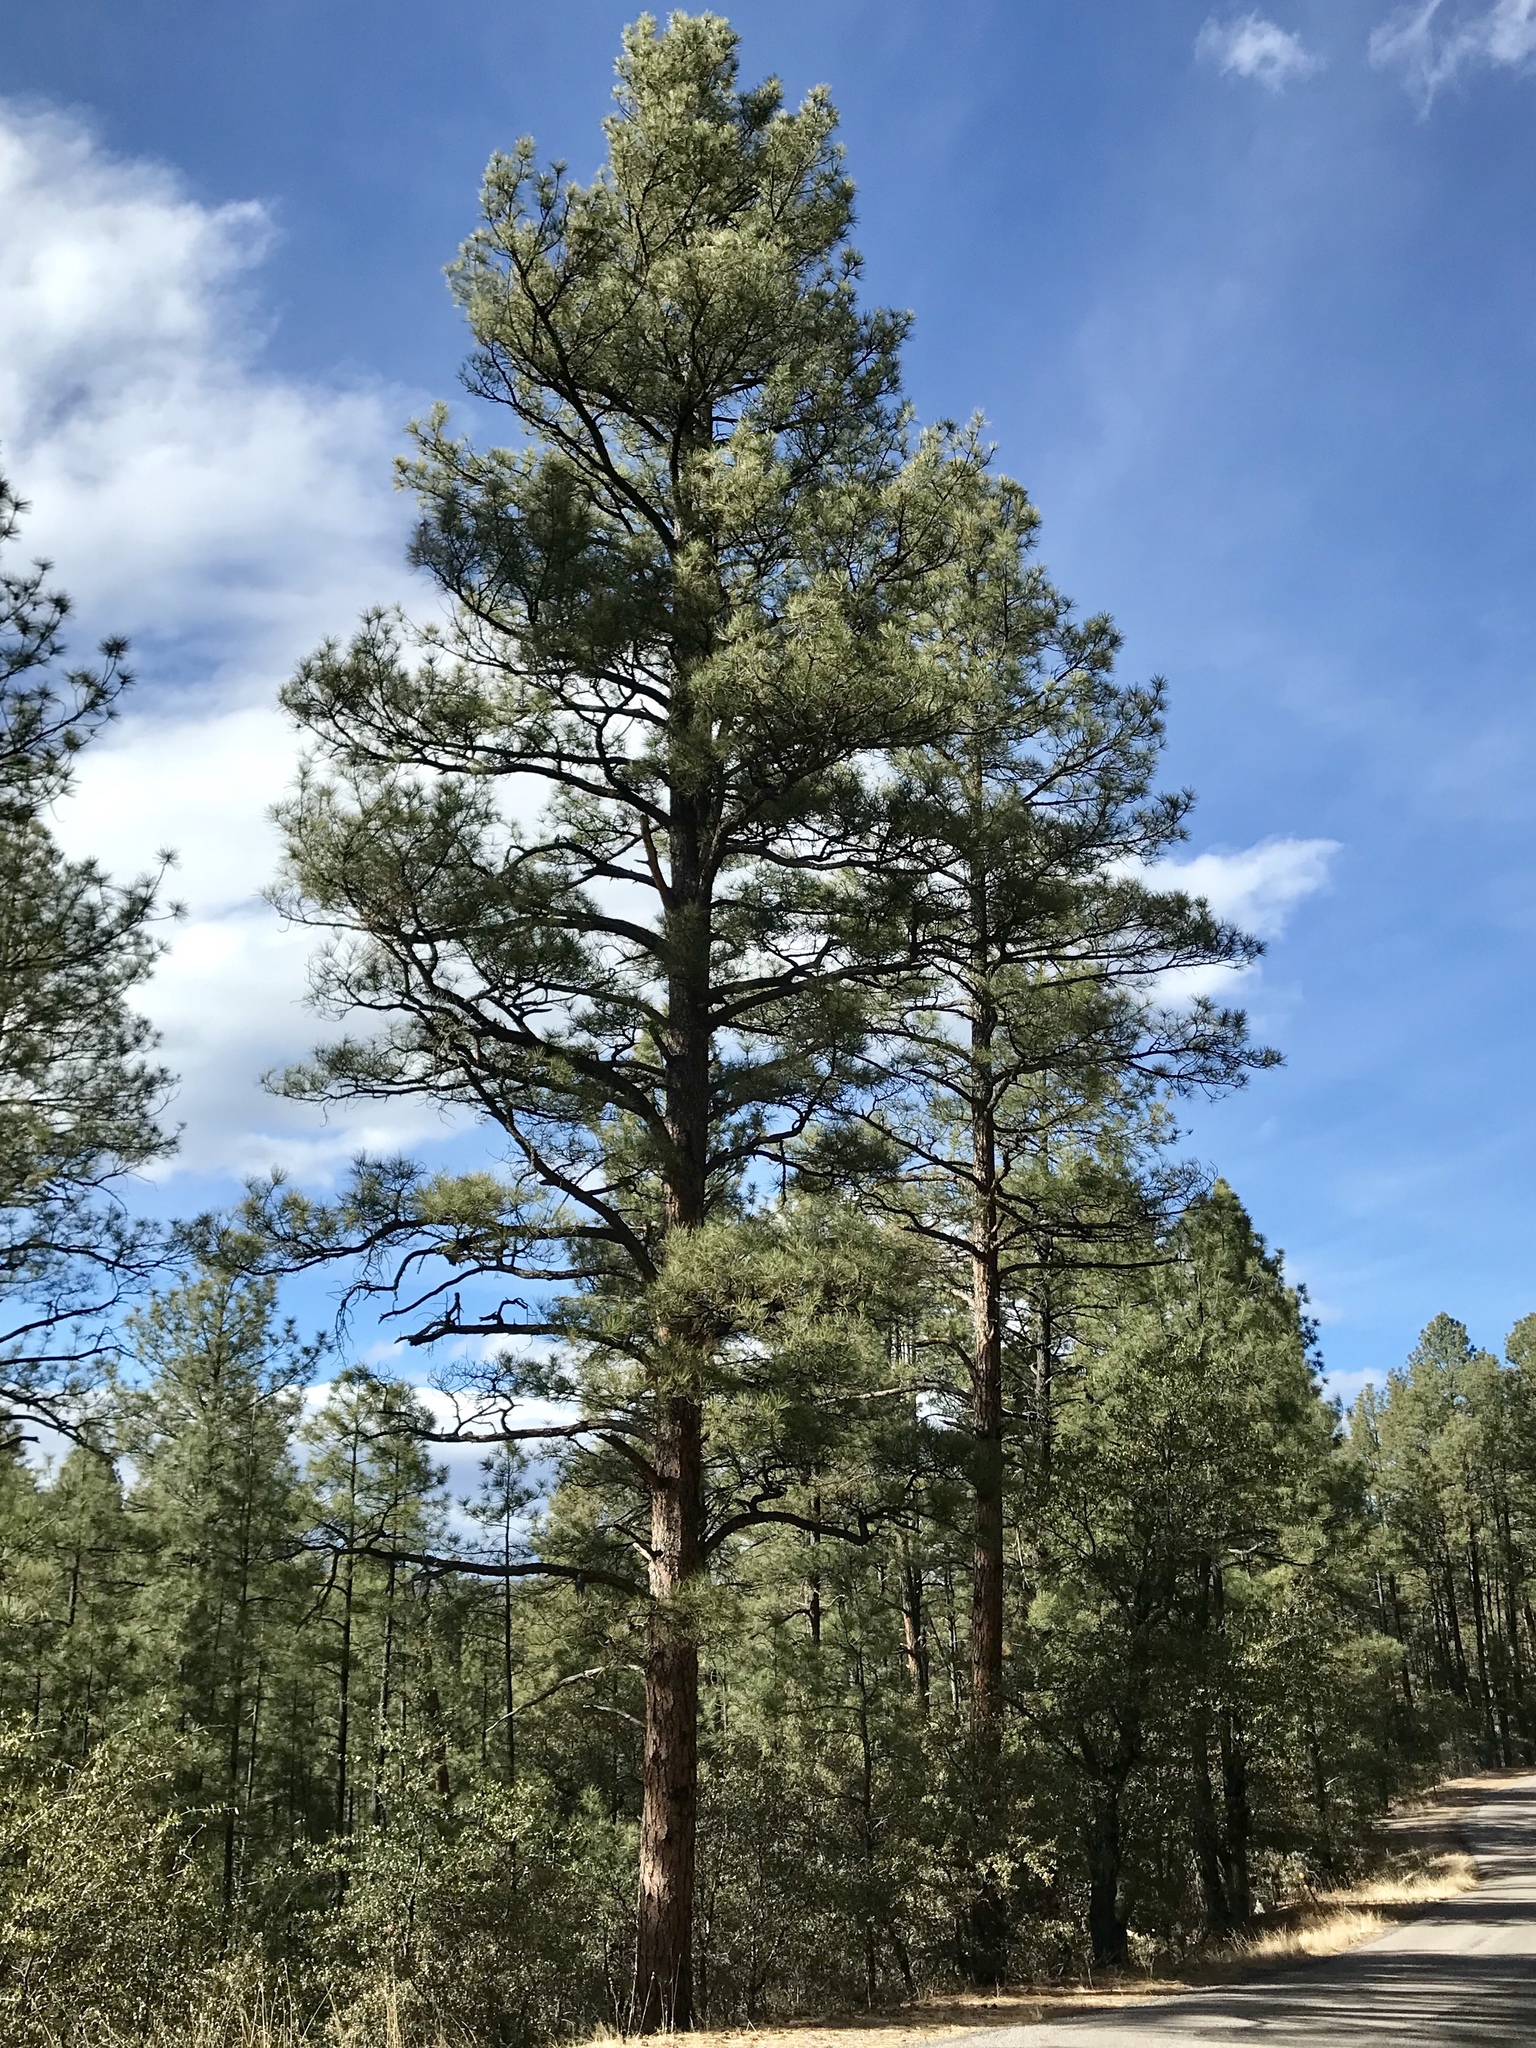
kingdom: Plantae
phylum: Tracheophyta
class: Pinopsida
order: Pinales
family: Pinaceae
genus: Pinus
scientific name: Pinus ponderosa
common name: Western yellow-pine
